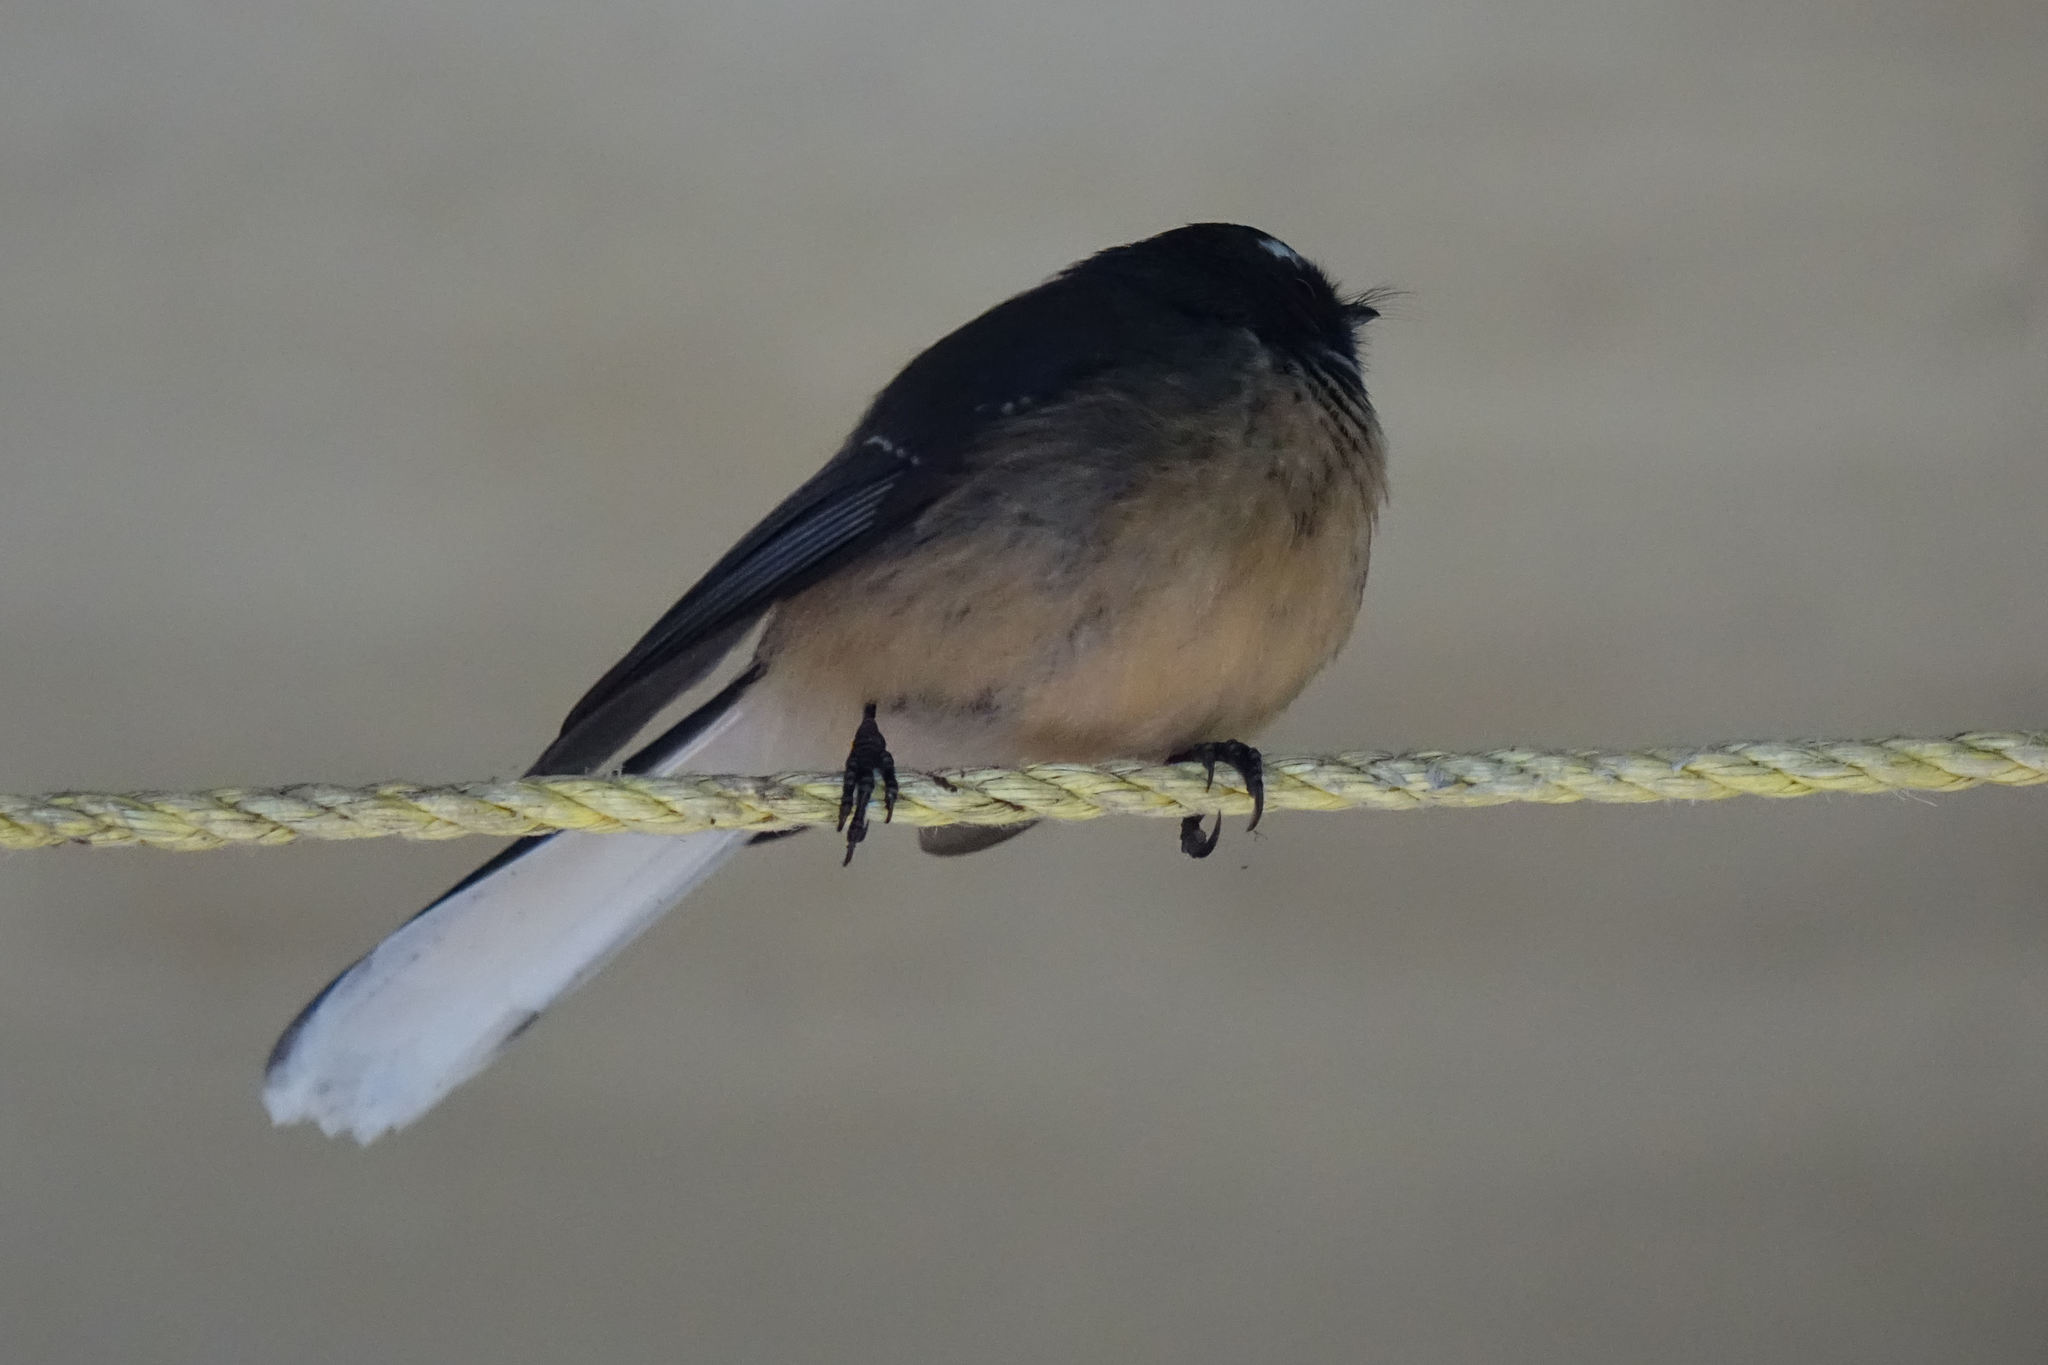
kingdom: Animalia
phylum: Chordata
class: Aves
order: Passeriformes
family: Rhipiduridae
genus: Rhipidura
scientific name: Rhipidura fuliginosa
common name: New zealand fantail
